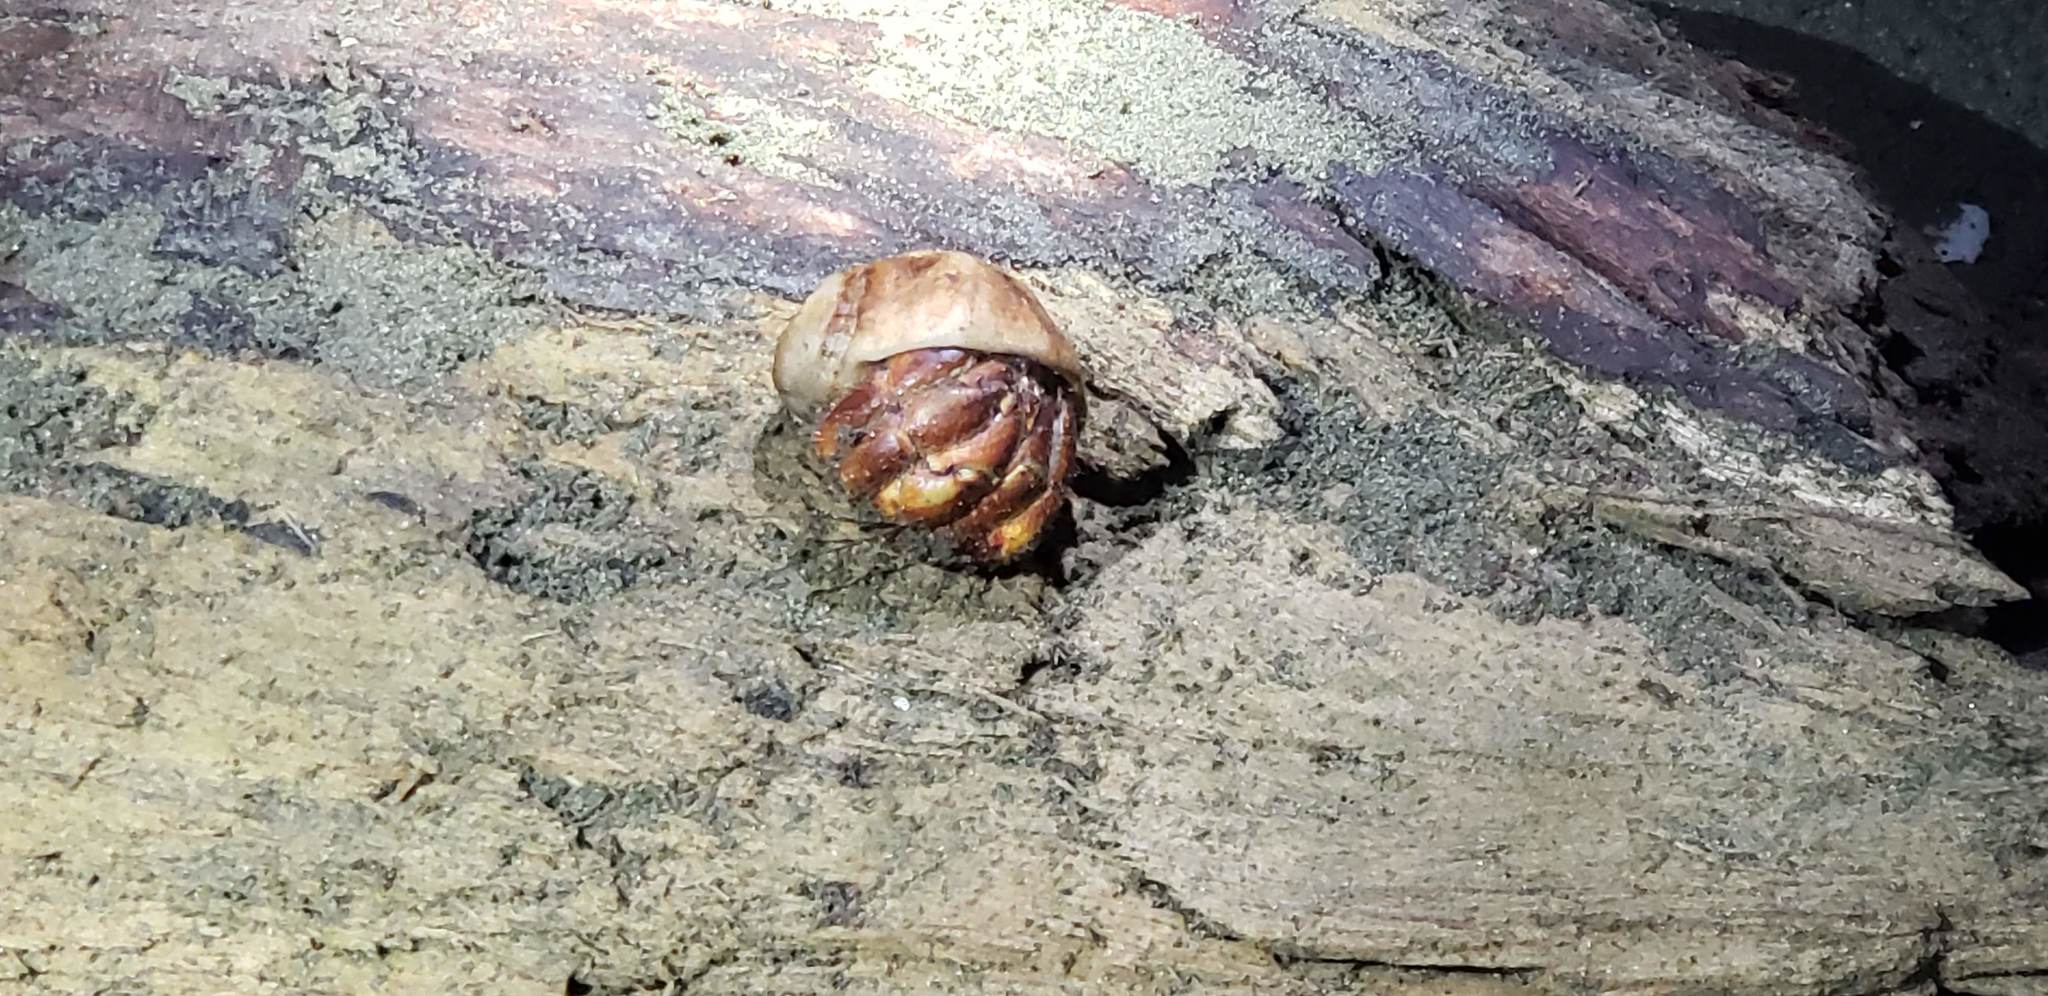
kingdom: Animalia
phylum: Arthropoda
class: Malacostraca
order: Decapoda
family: Coenobitidae
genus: Coenobita
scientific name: Coenobita compressus
